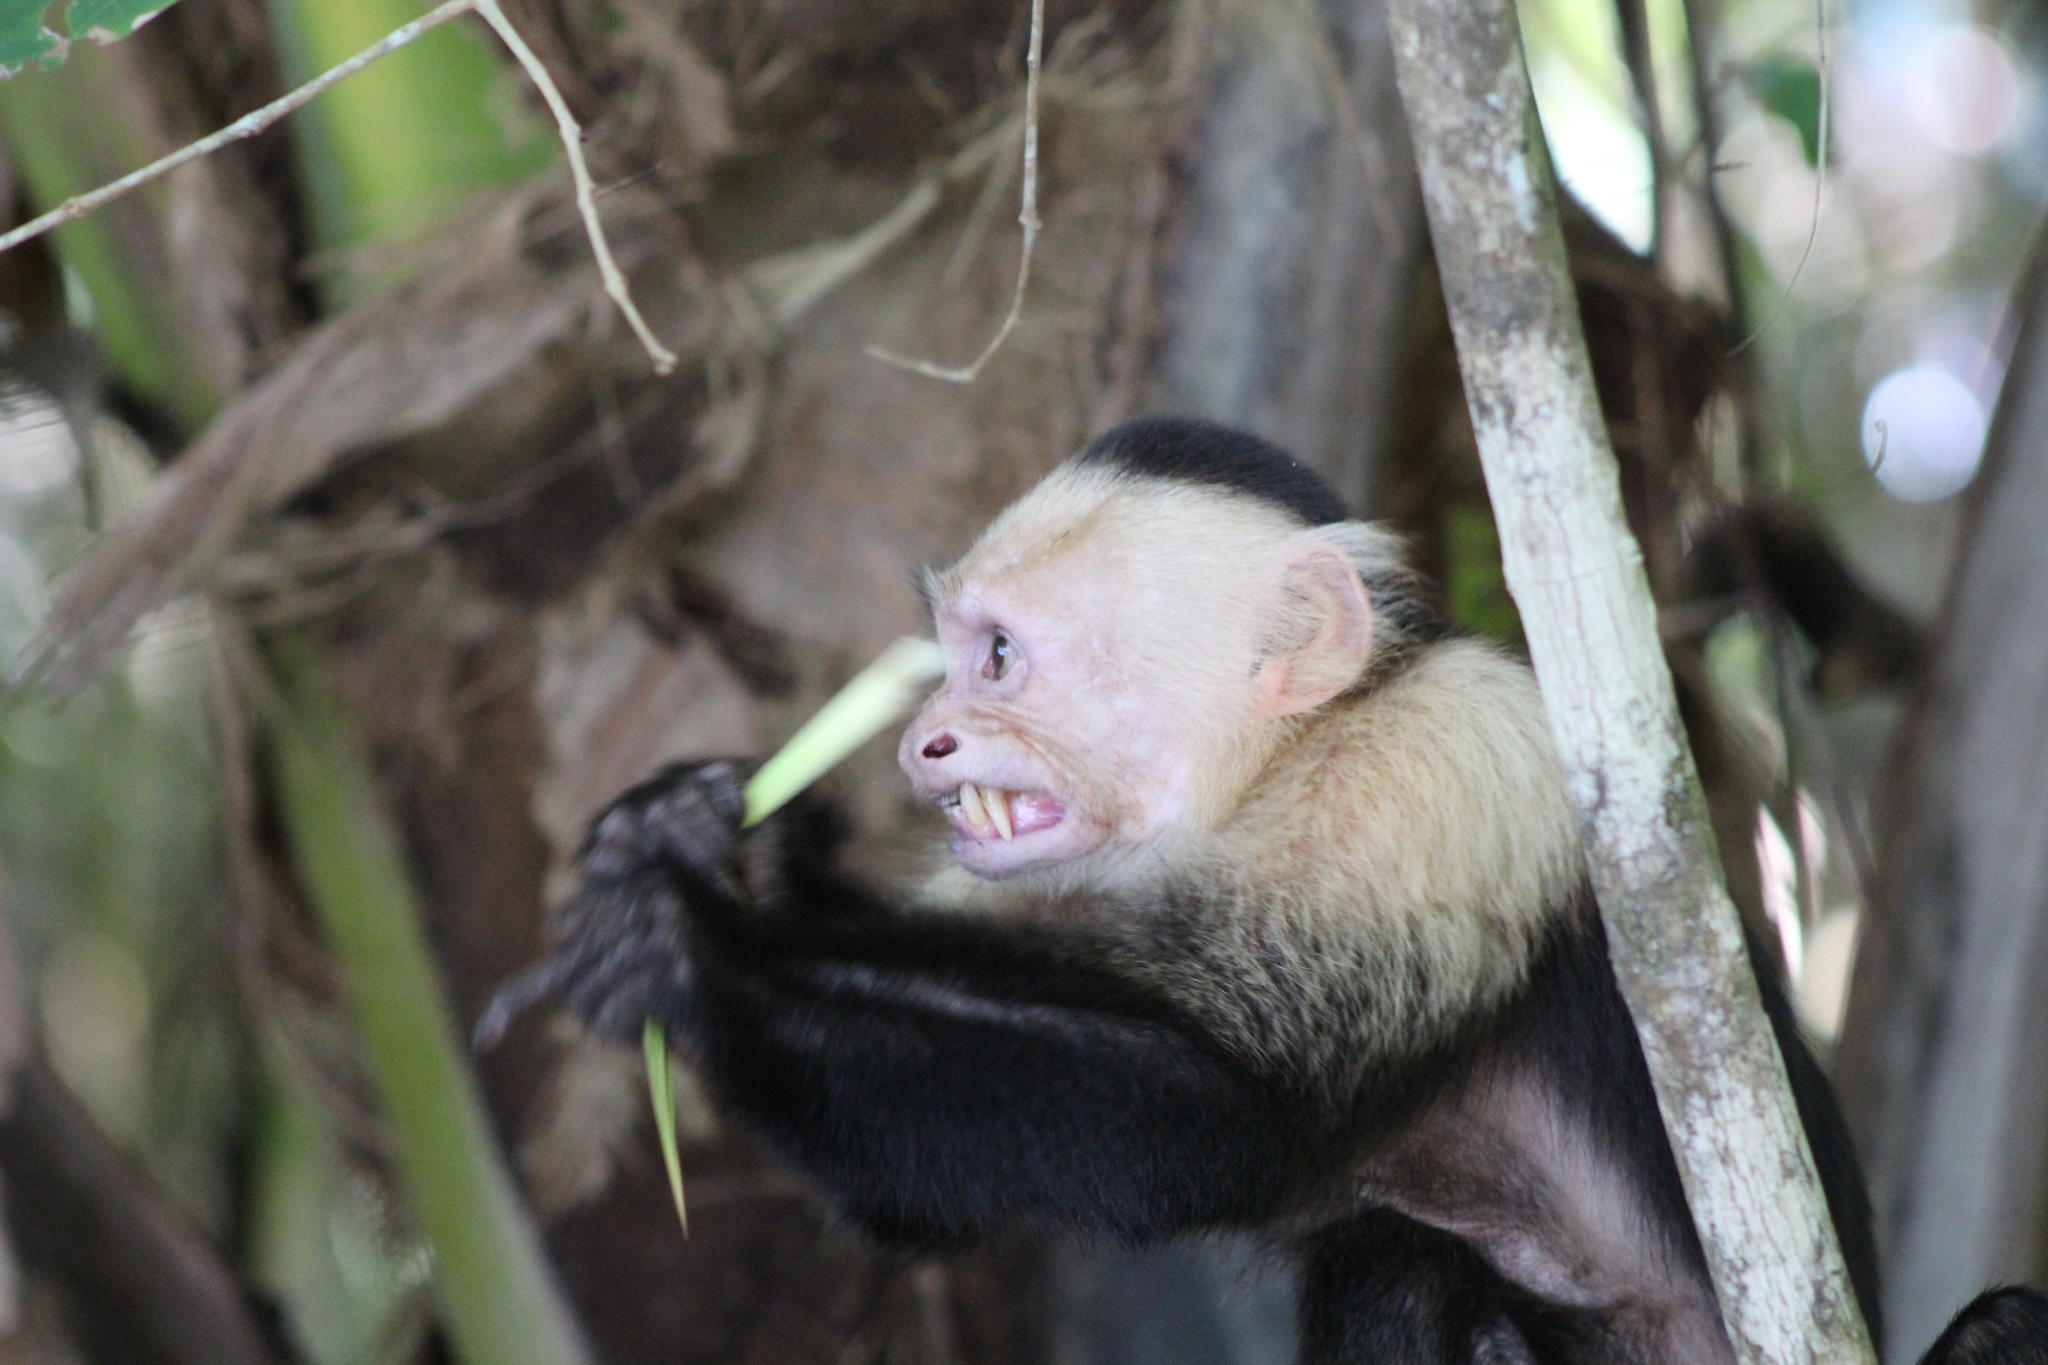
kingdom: Animalia
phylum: Chordata
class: Mammalia
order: Primates
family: Cebidae
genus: Cebus
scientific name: Cebus imitator
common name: Panamanian white-faced capuchin
